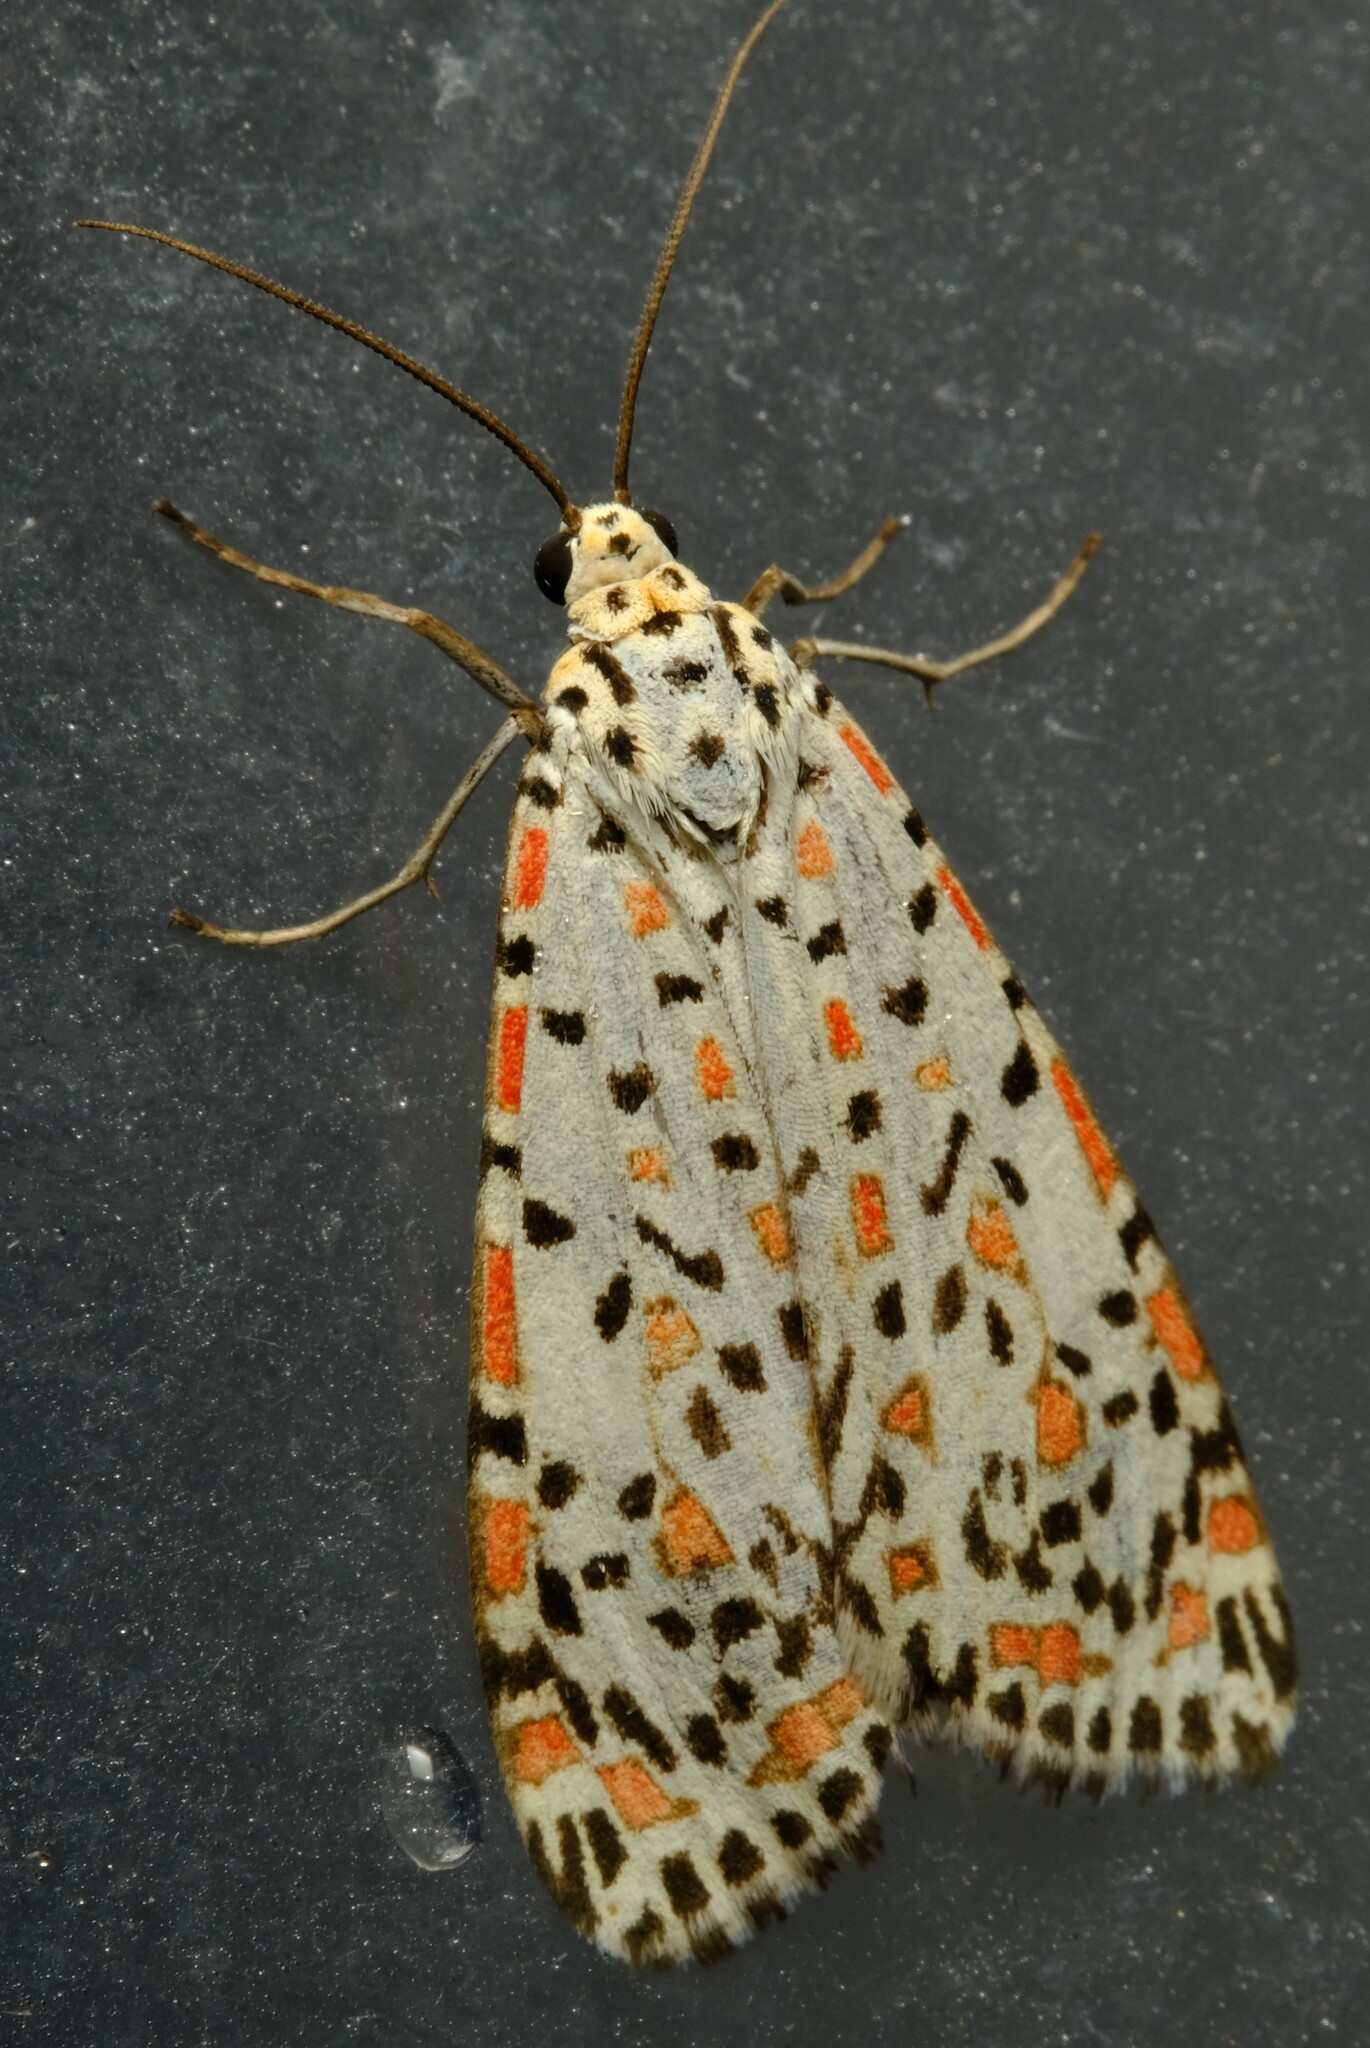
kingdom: Animalia
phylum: Arthropoda
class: Insecta
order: Lepidoptera
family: Erebidae
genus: Utetheisa
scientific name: Utetheisa pulchelloides
